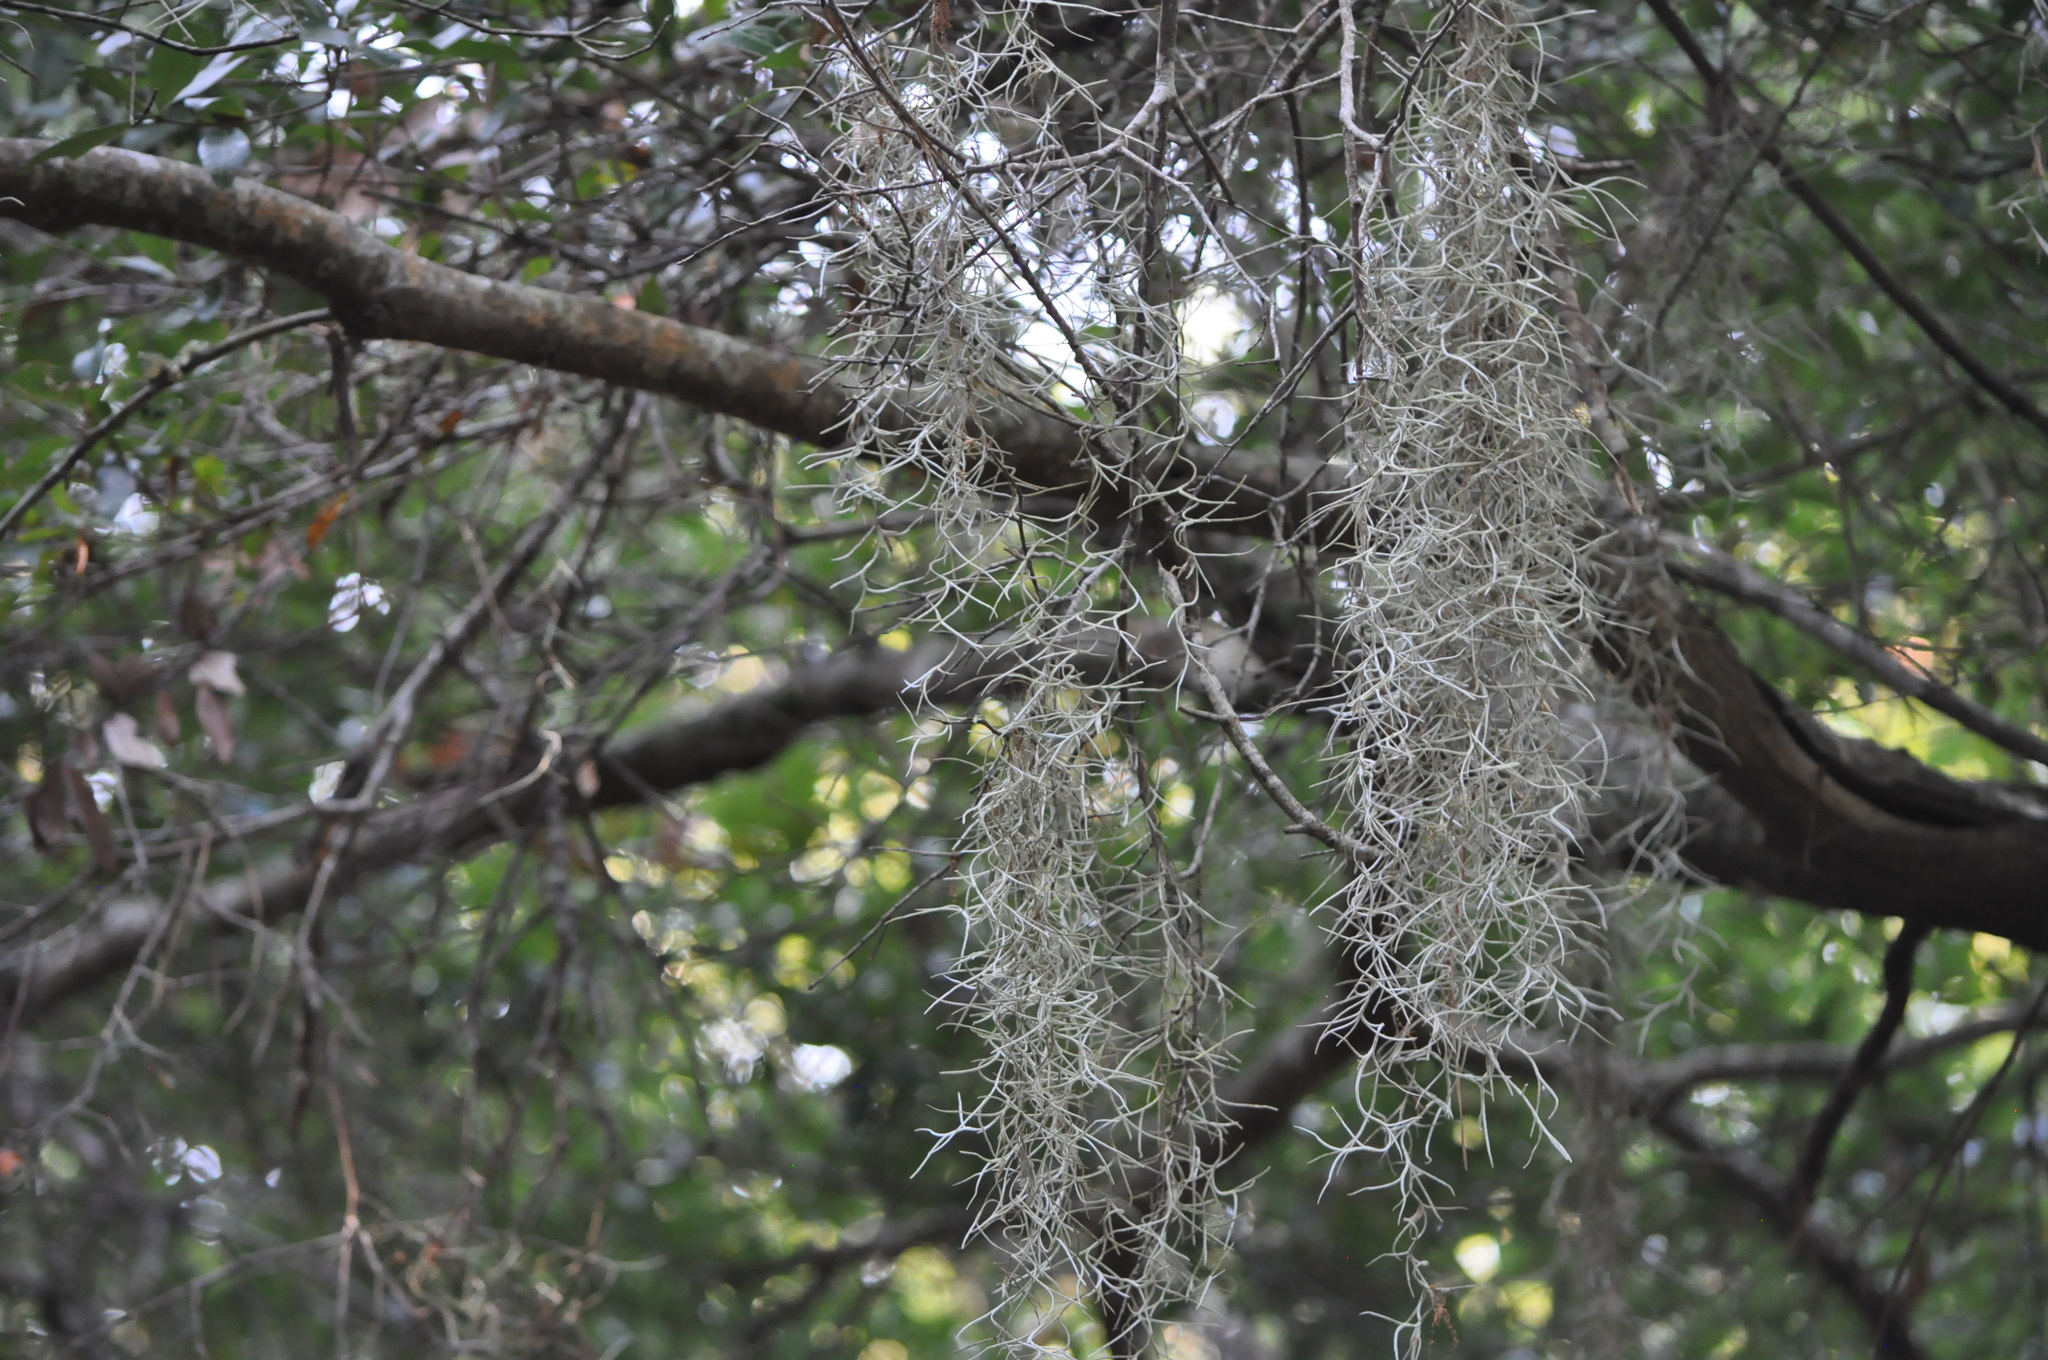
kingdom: Plantae
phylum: Tracheophyta
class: Liliopsida
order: Poales
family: Bromeliaceae
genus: Tillandsia
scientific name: Tillandsia usneoides
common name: Spanish moss
